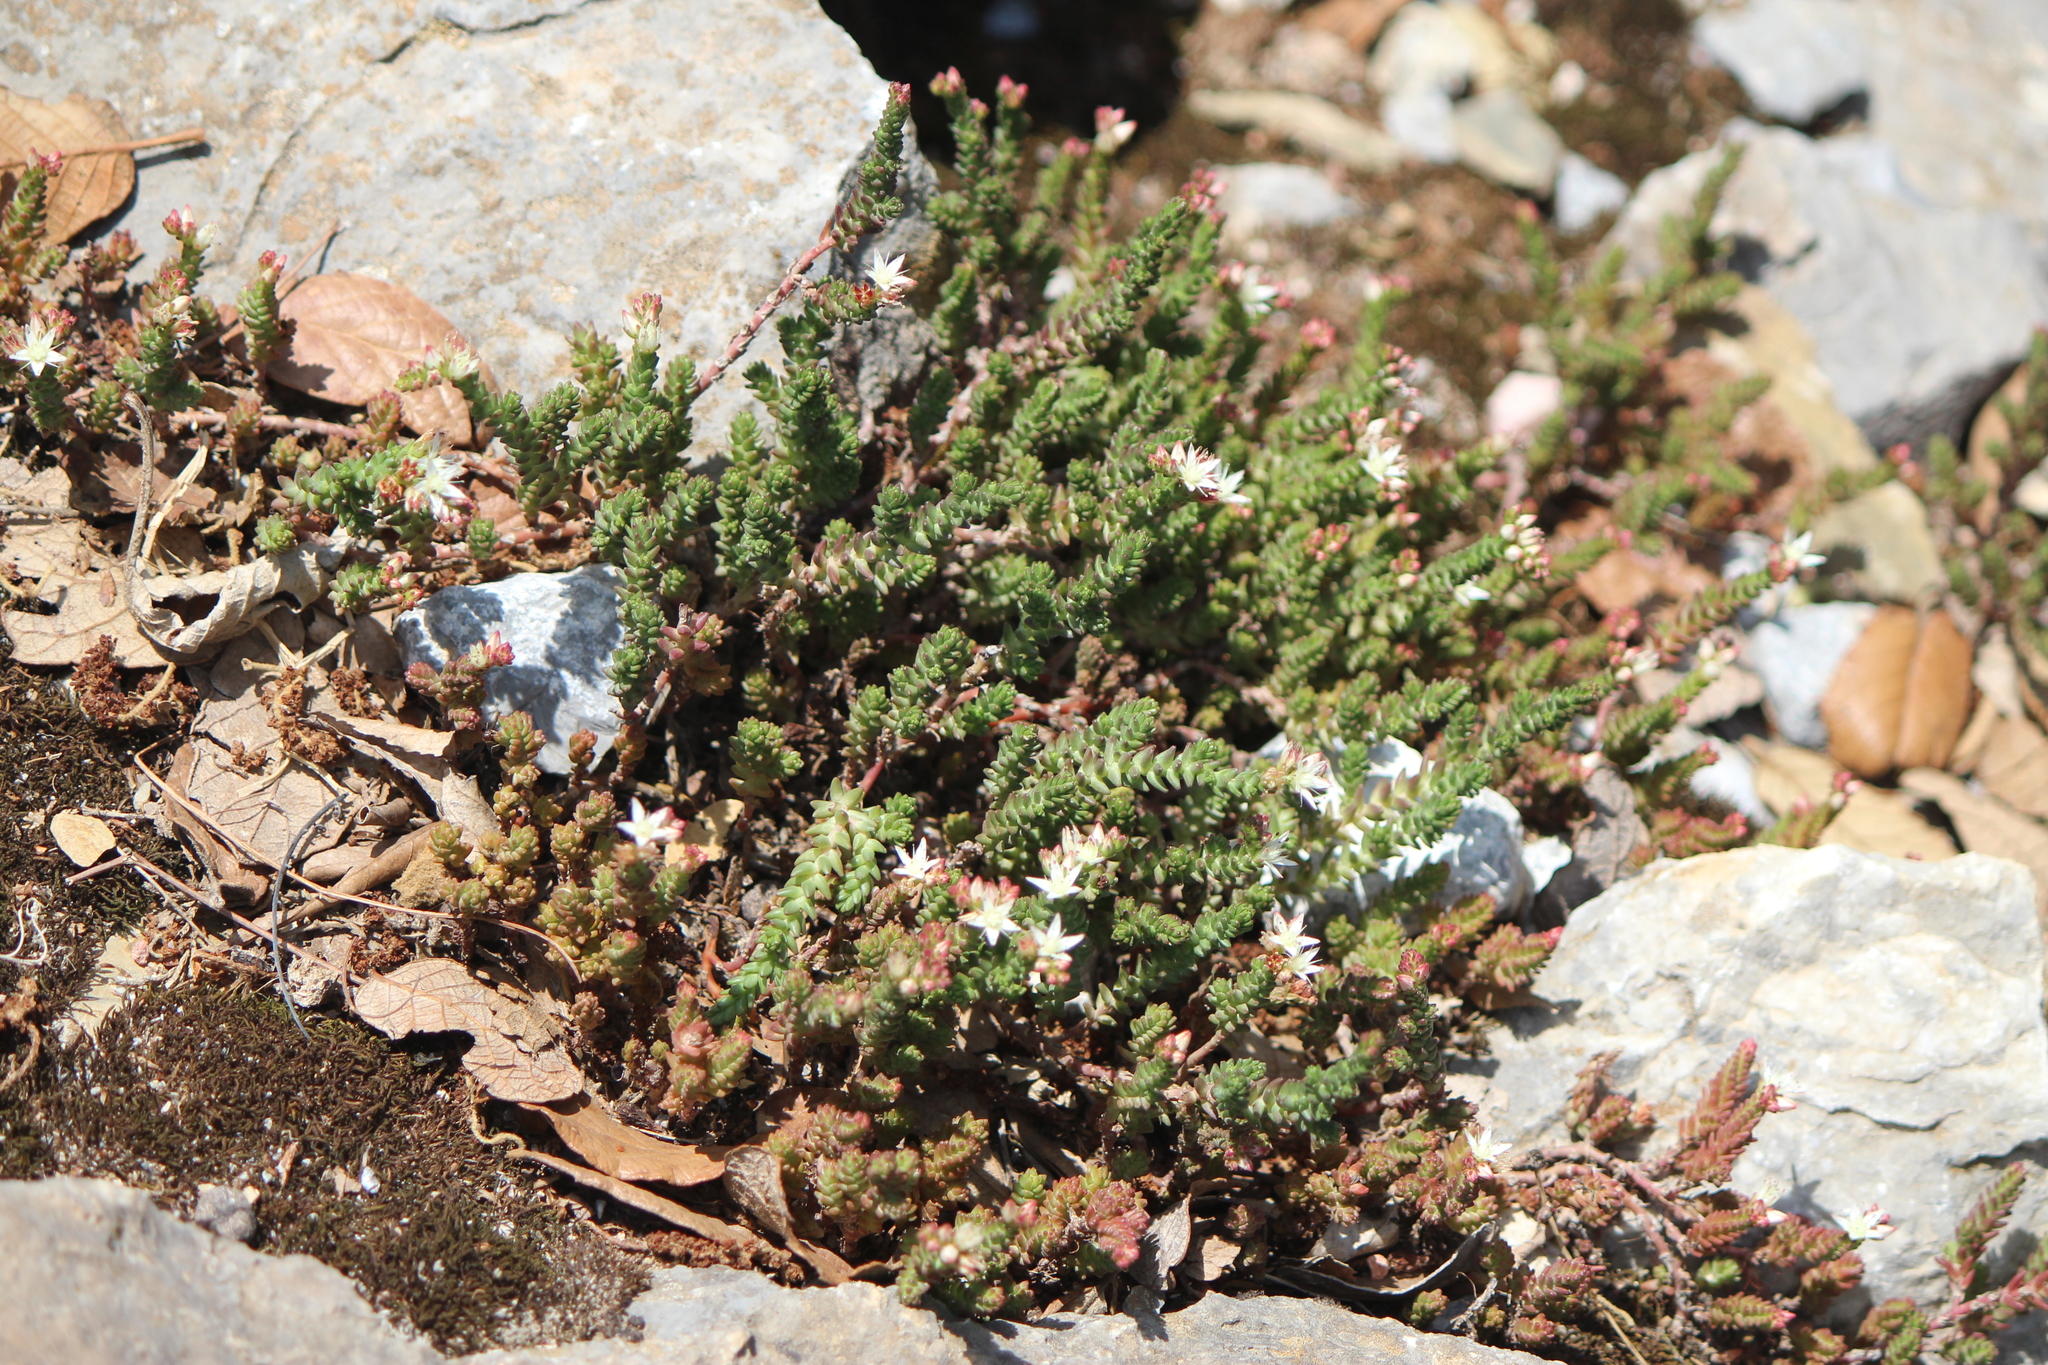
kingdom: Plantae
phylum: Tracheophyta
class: Magnoliopsida
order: Saxifragales
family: Crassulaceae
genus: Sedum
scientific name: Sedum moranense
